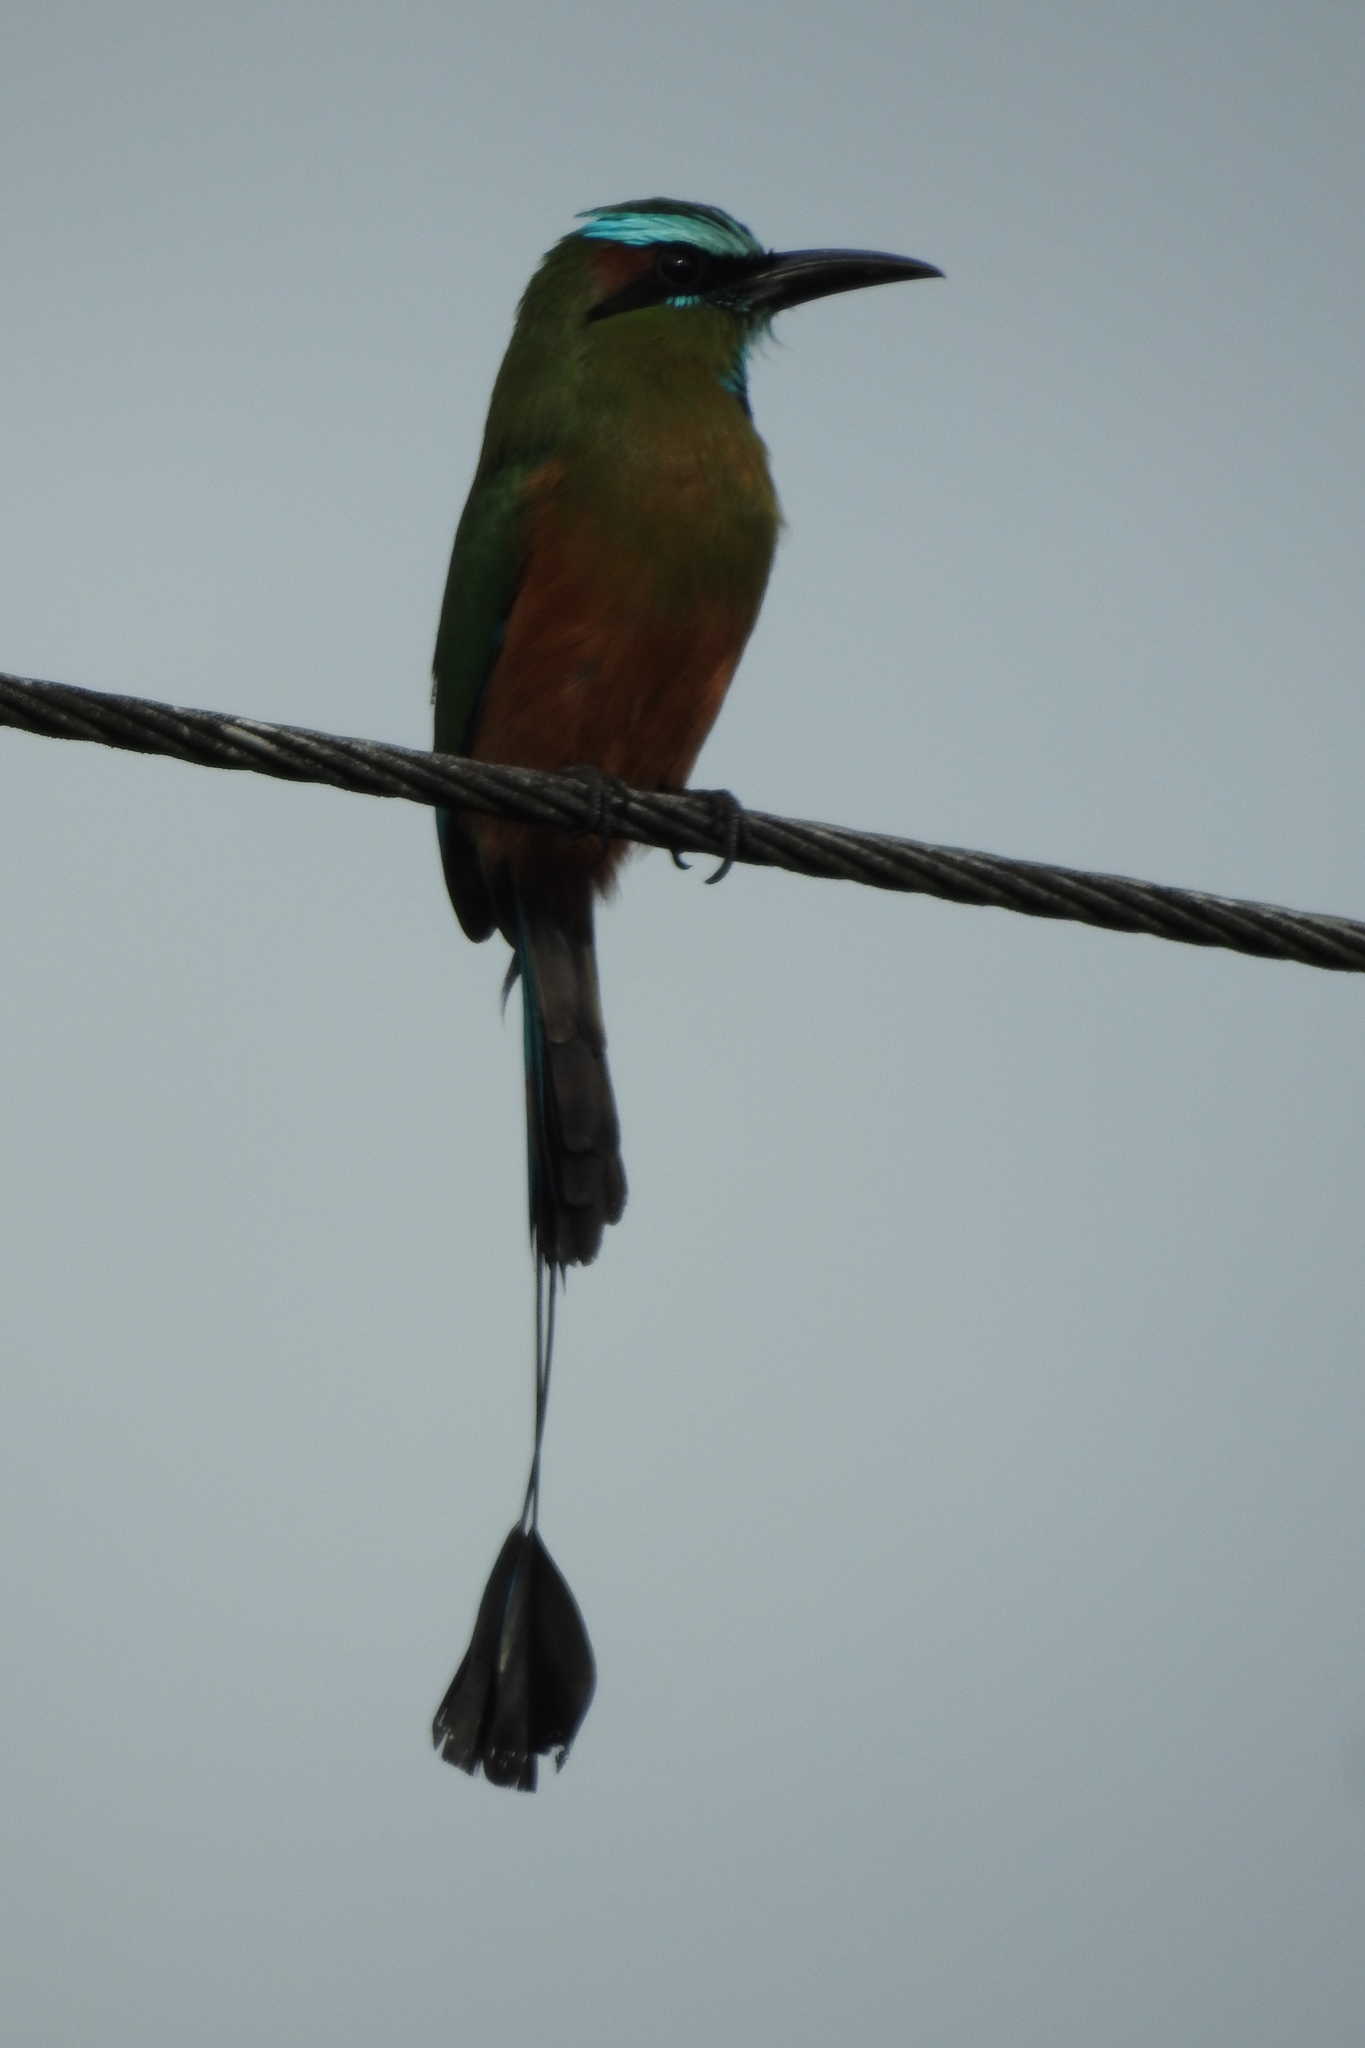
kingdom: Animalia
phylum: Chordata
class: Aves
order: Coraciiformes
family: Momotidae
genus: Eumomota
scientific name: Eumomota superciliosa
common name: Turquoise-browed motmot
